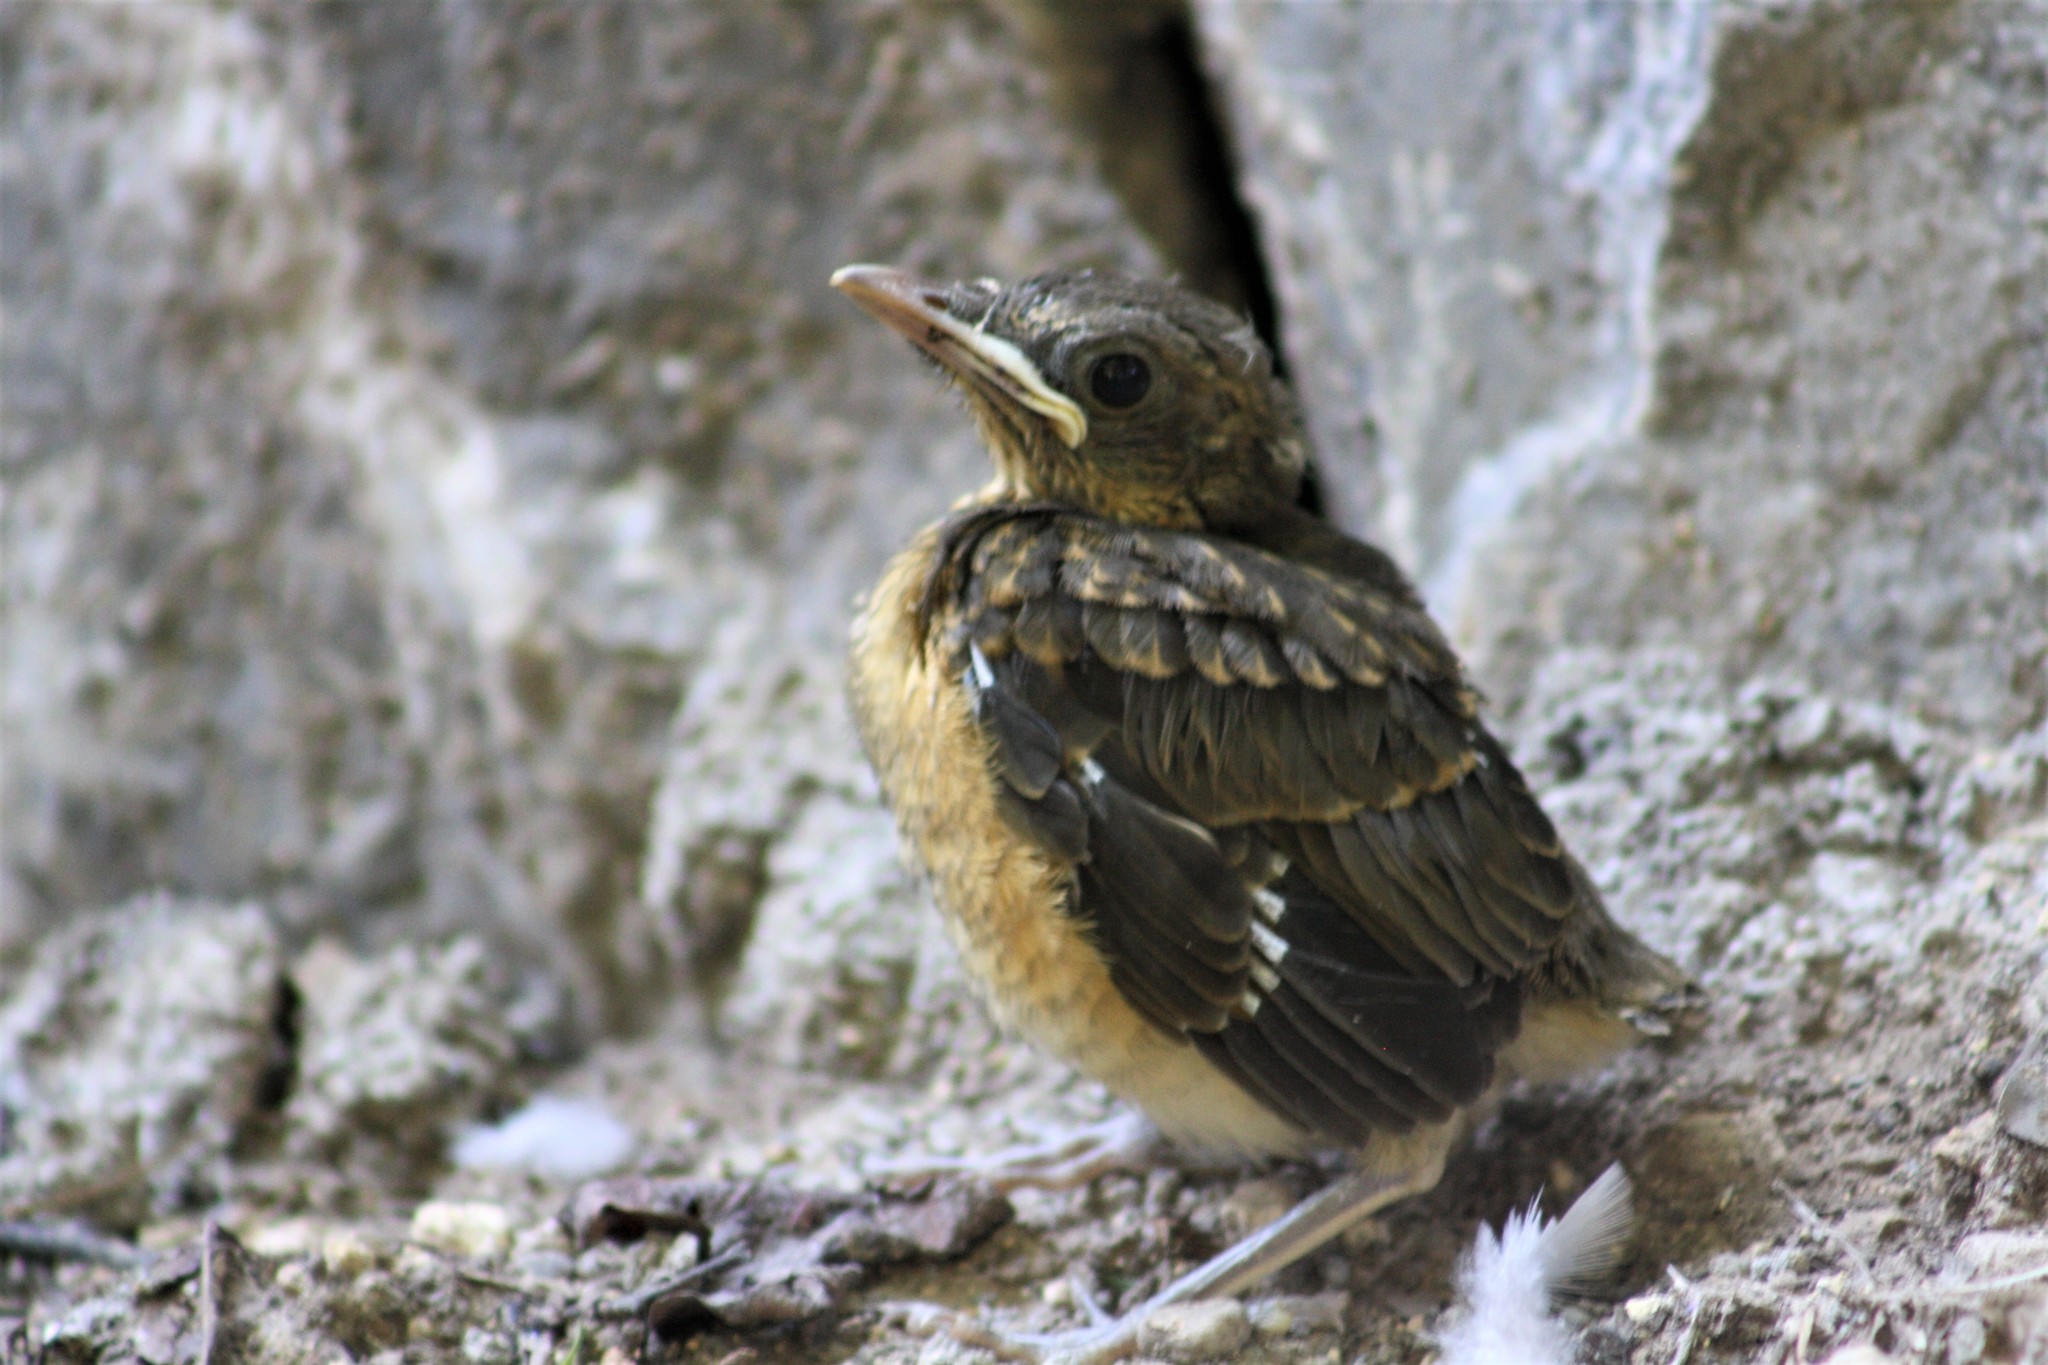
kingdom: Animalia
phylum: Chordata
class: Aves
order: Passeriformes
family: Turdidae
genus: Turdus
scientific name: Turdus grayi
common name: Clay-colored thrush
